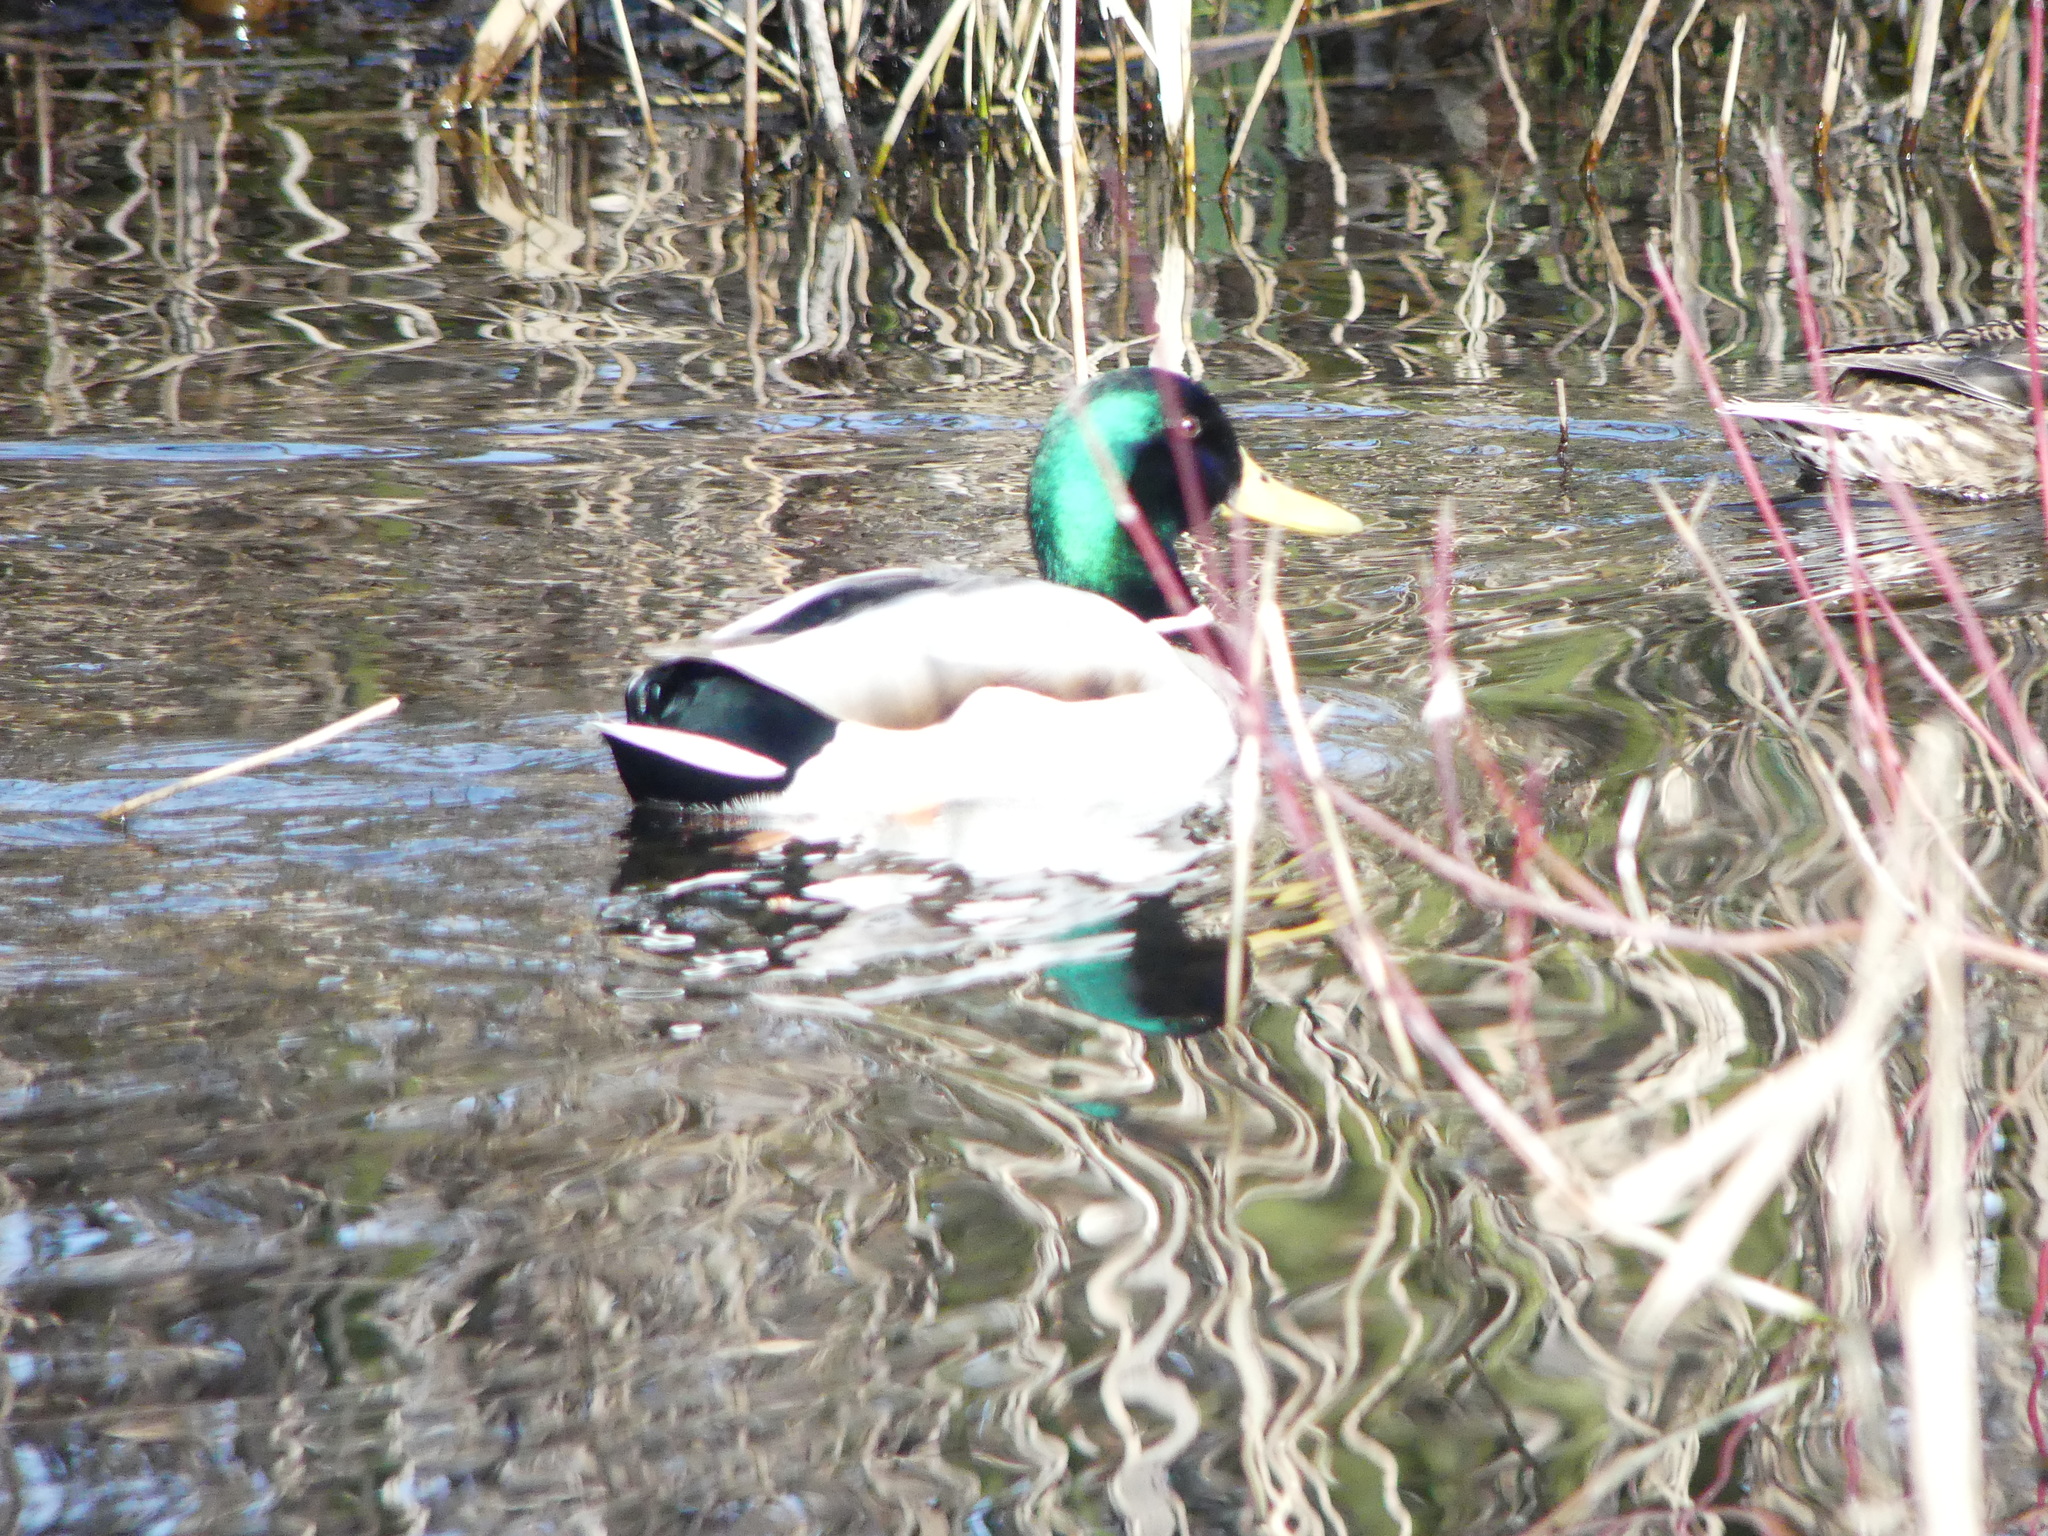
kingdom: Animalia
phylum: Chordata
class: Aves
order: Anseriformes
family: Anatidae
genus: Anas
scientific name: Anas platyrhynchos
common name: Mallard
